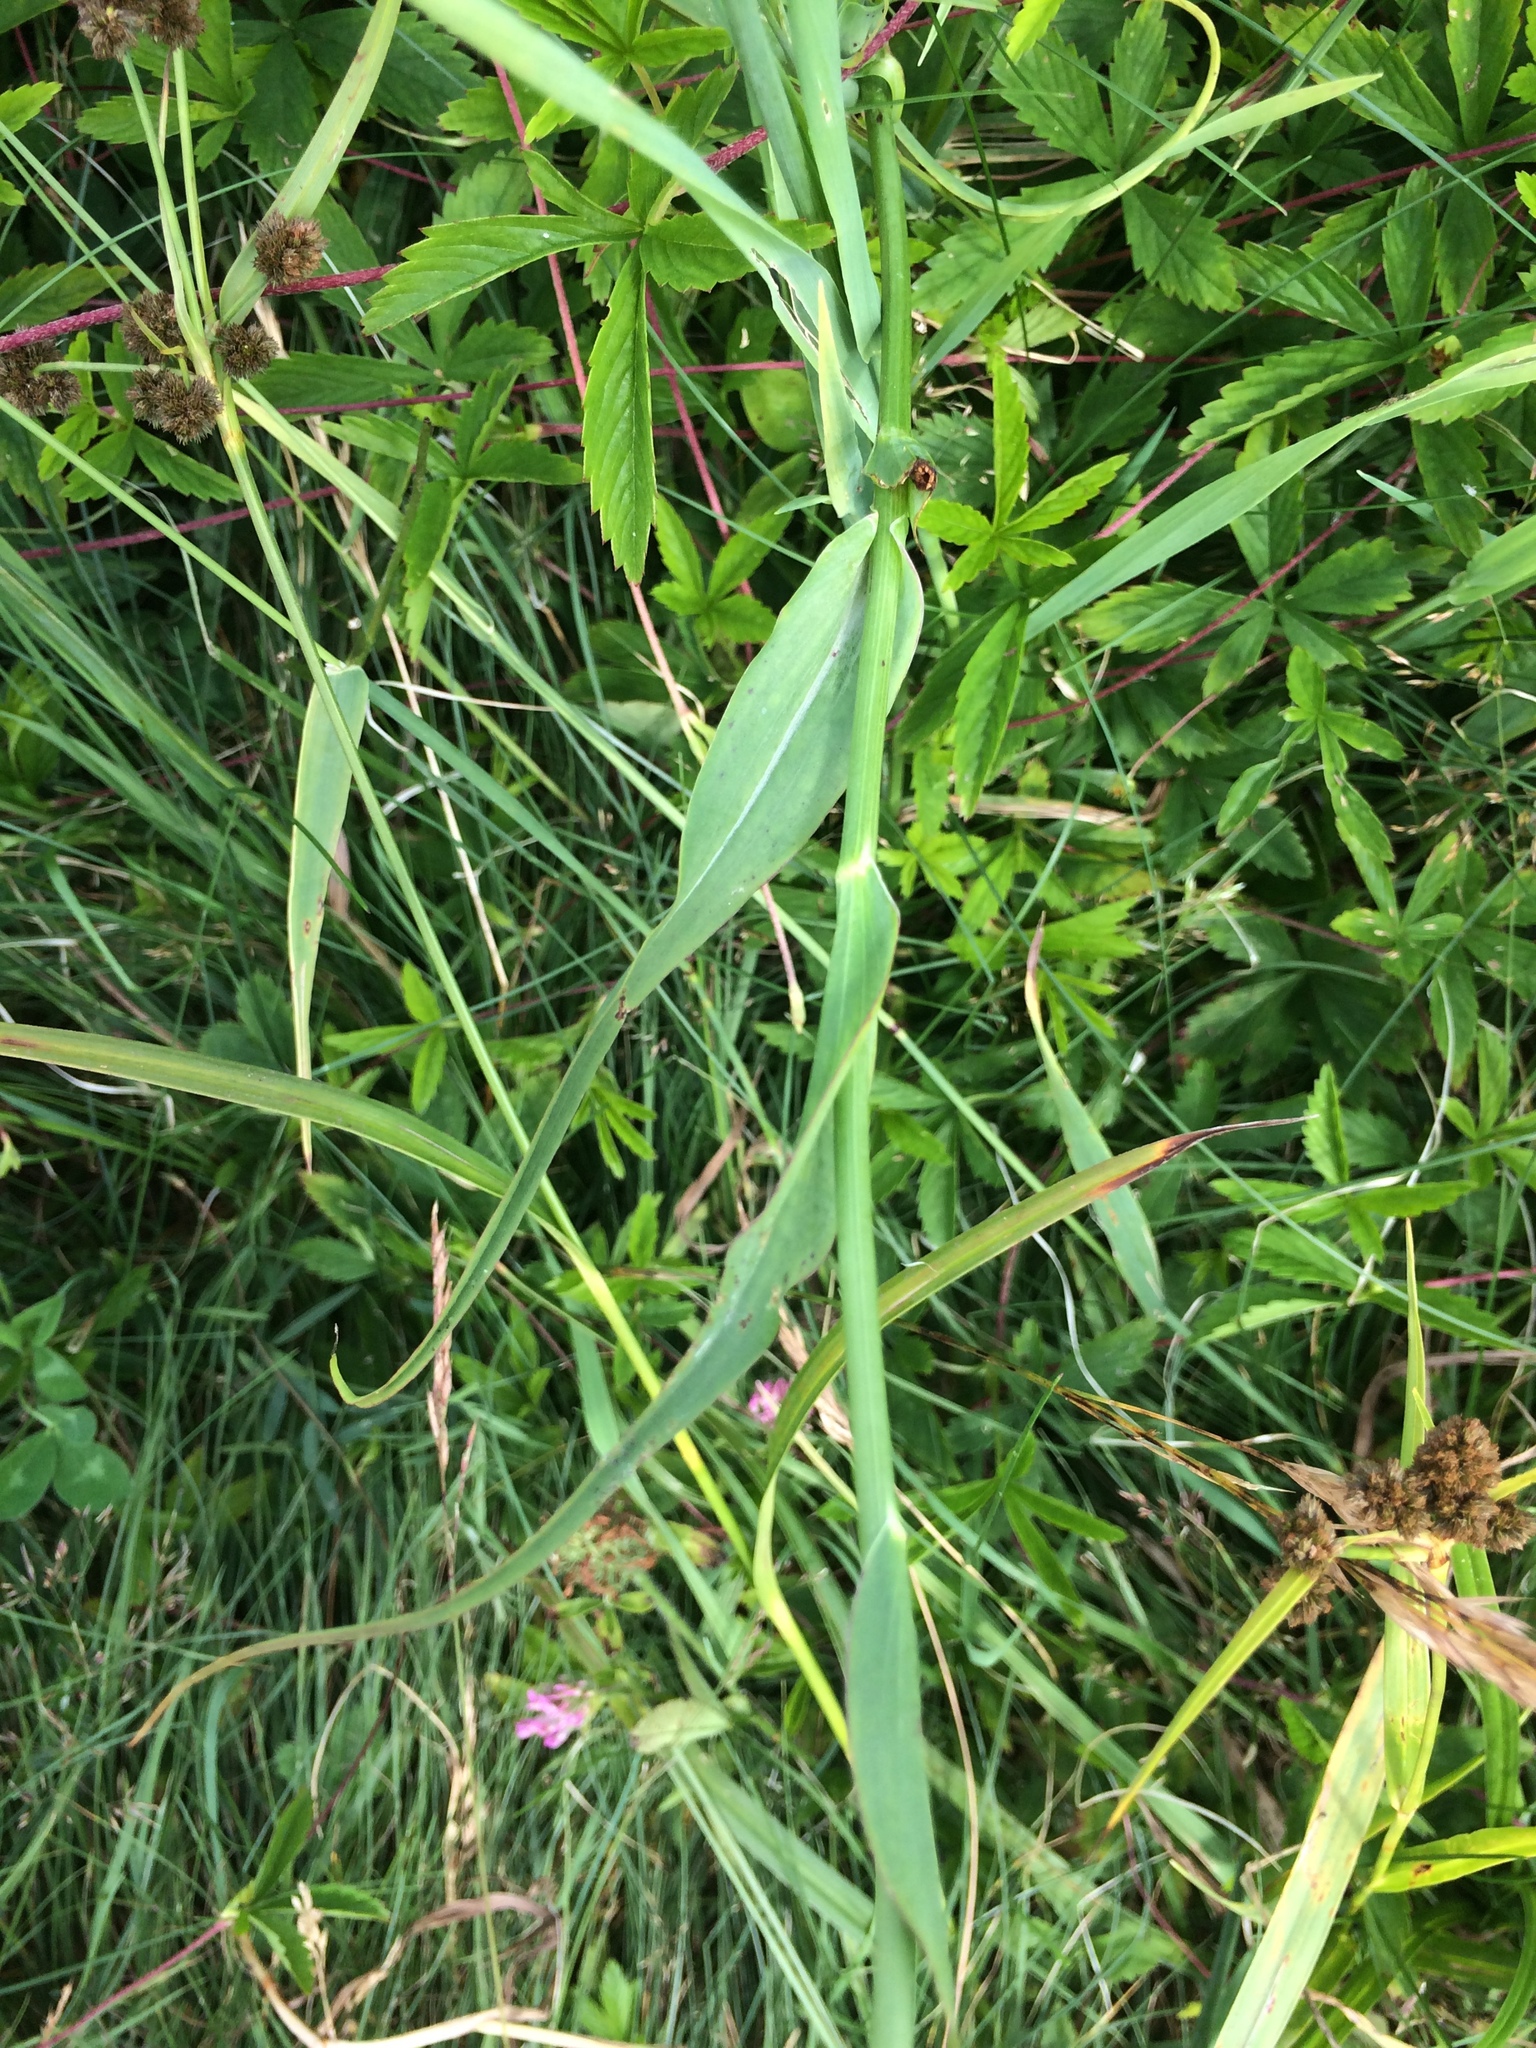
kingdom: Plantae
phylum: Tracheophyta
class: Magnoliopsida
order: Asterales
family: Asteraceae
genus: Tragopogon
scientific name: Tragopogon pratensis
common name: Goat's-beard
